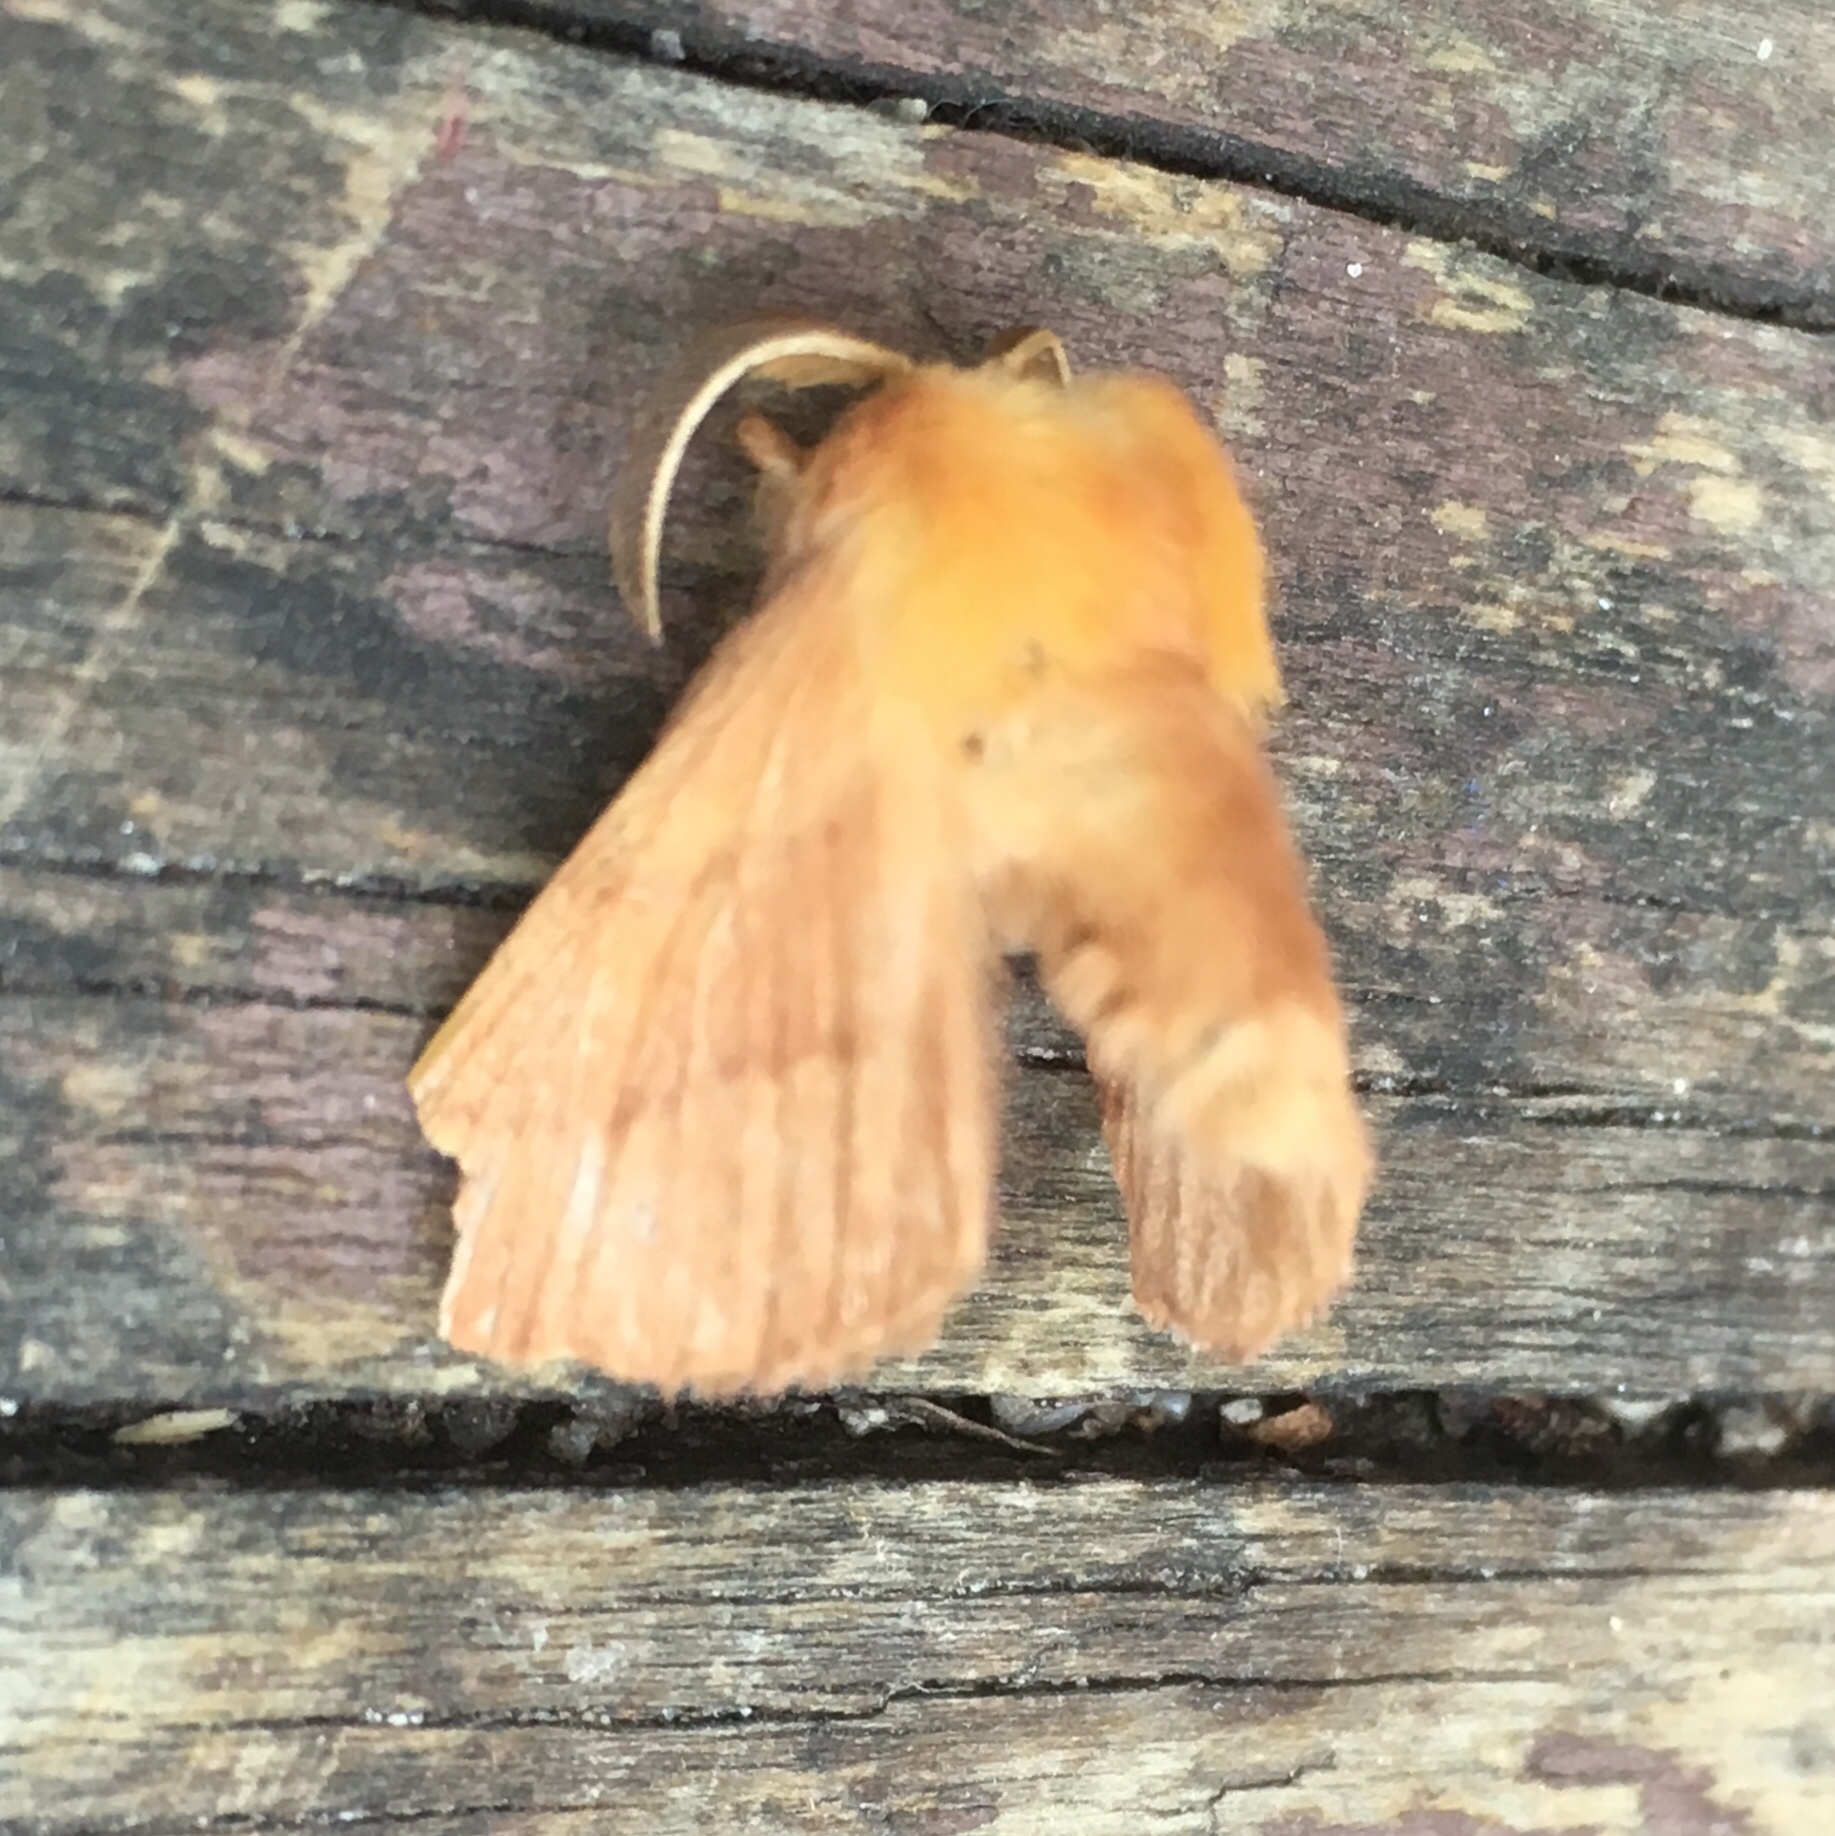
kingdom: Animalia
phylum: Arthropoda
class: Insecta
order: Lepidoptera
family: Lasiocampidae
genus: Malacosoma
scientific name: Malacosoma disstria
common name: Forest tent caterpillar
